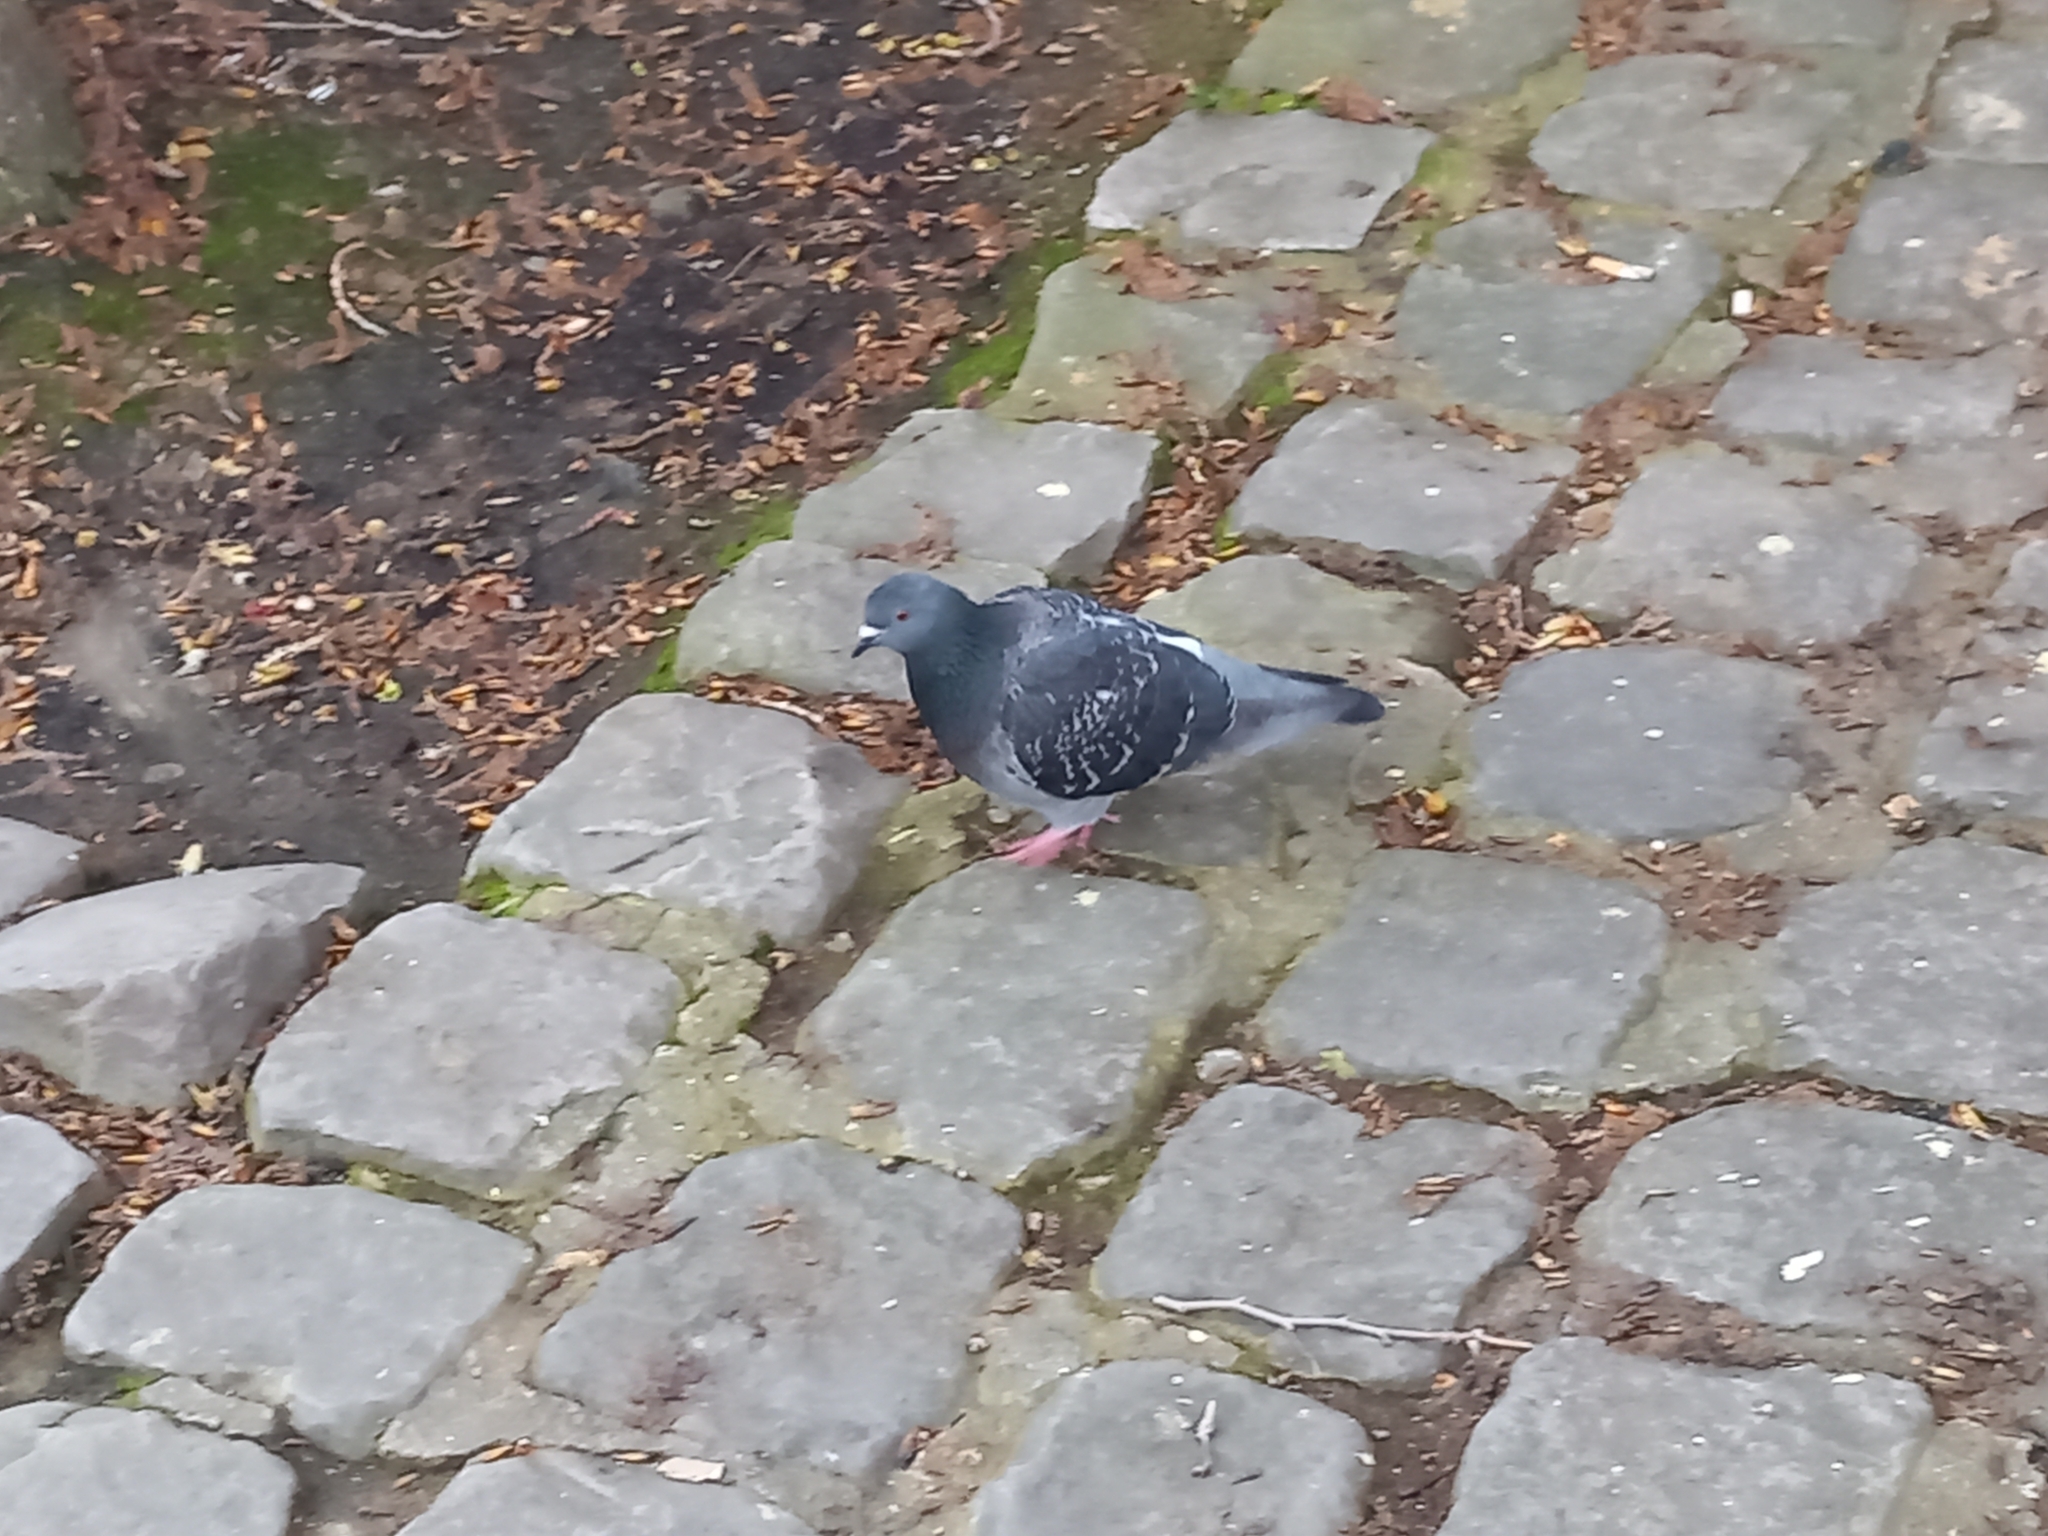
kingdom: Animalia
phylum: Chordata
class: Aves
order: Columbiformes
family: Columbidae
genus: Columba
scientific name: Columba livia
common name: Rock pigeon
